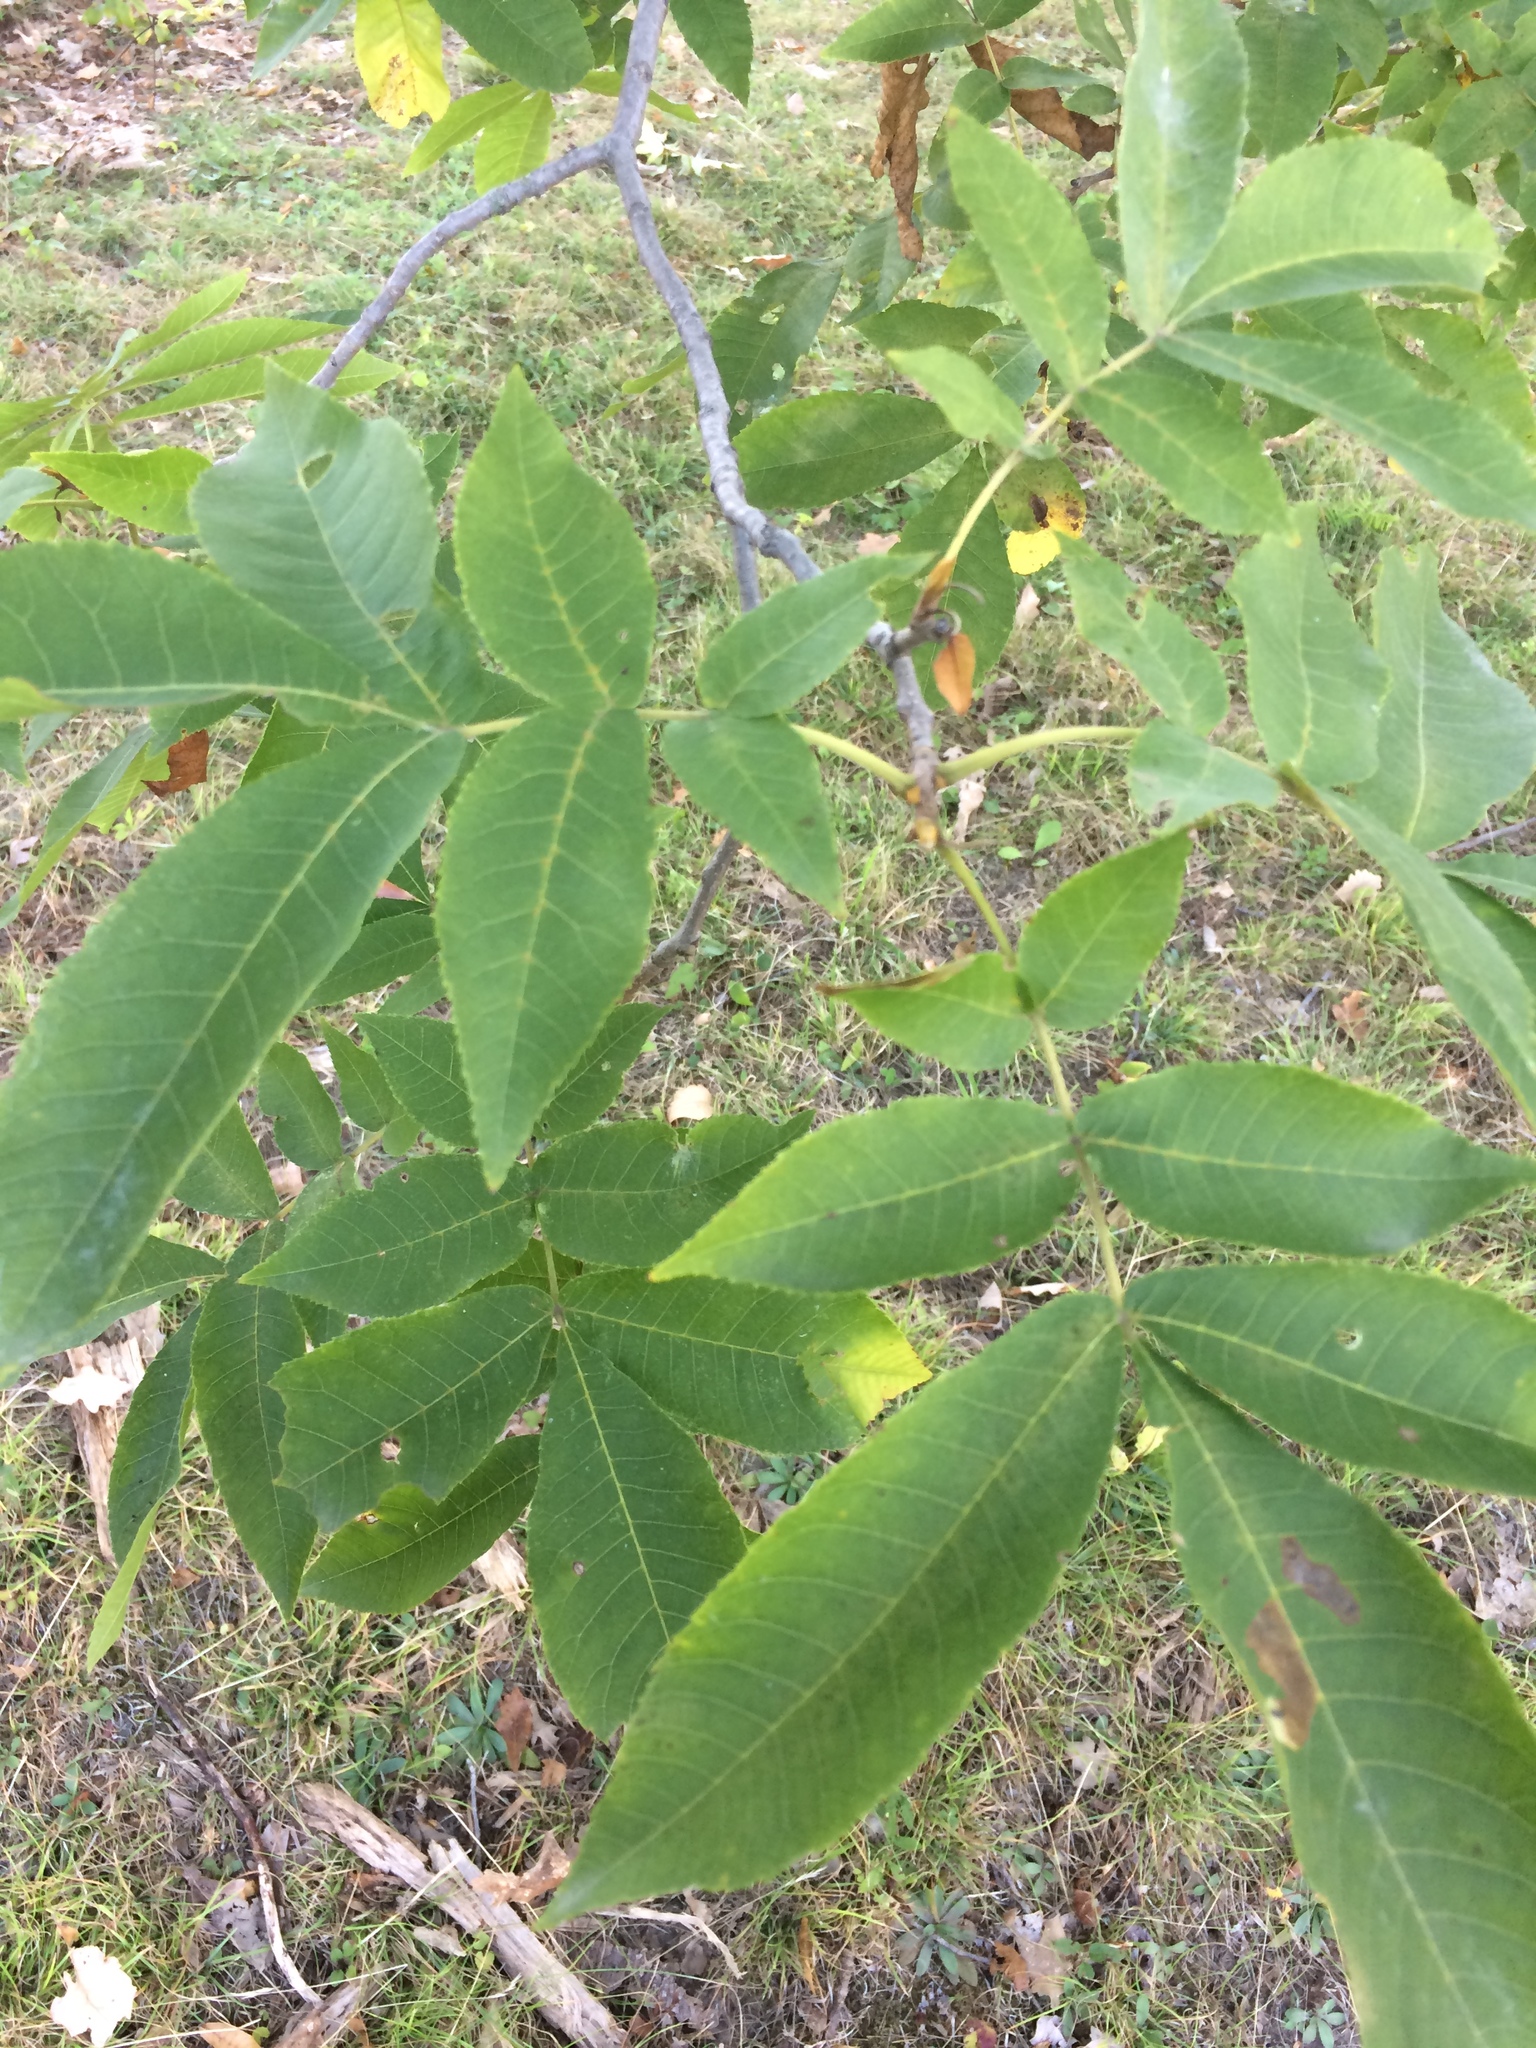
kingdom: Plantae
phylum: Tracheophyta
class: Magnoliopsida
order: Fagales
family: Juglandaceae
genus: Carya
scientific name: Carya cordiformis
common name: Bitternut hickory
